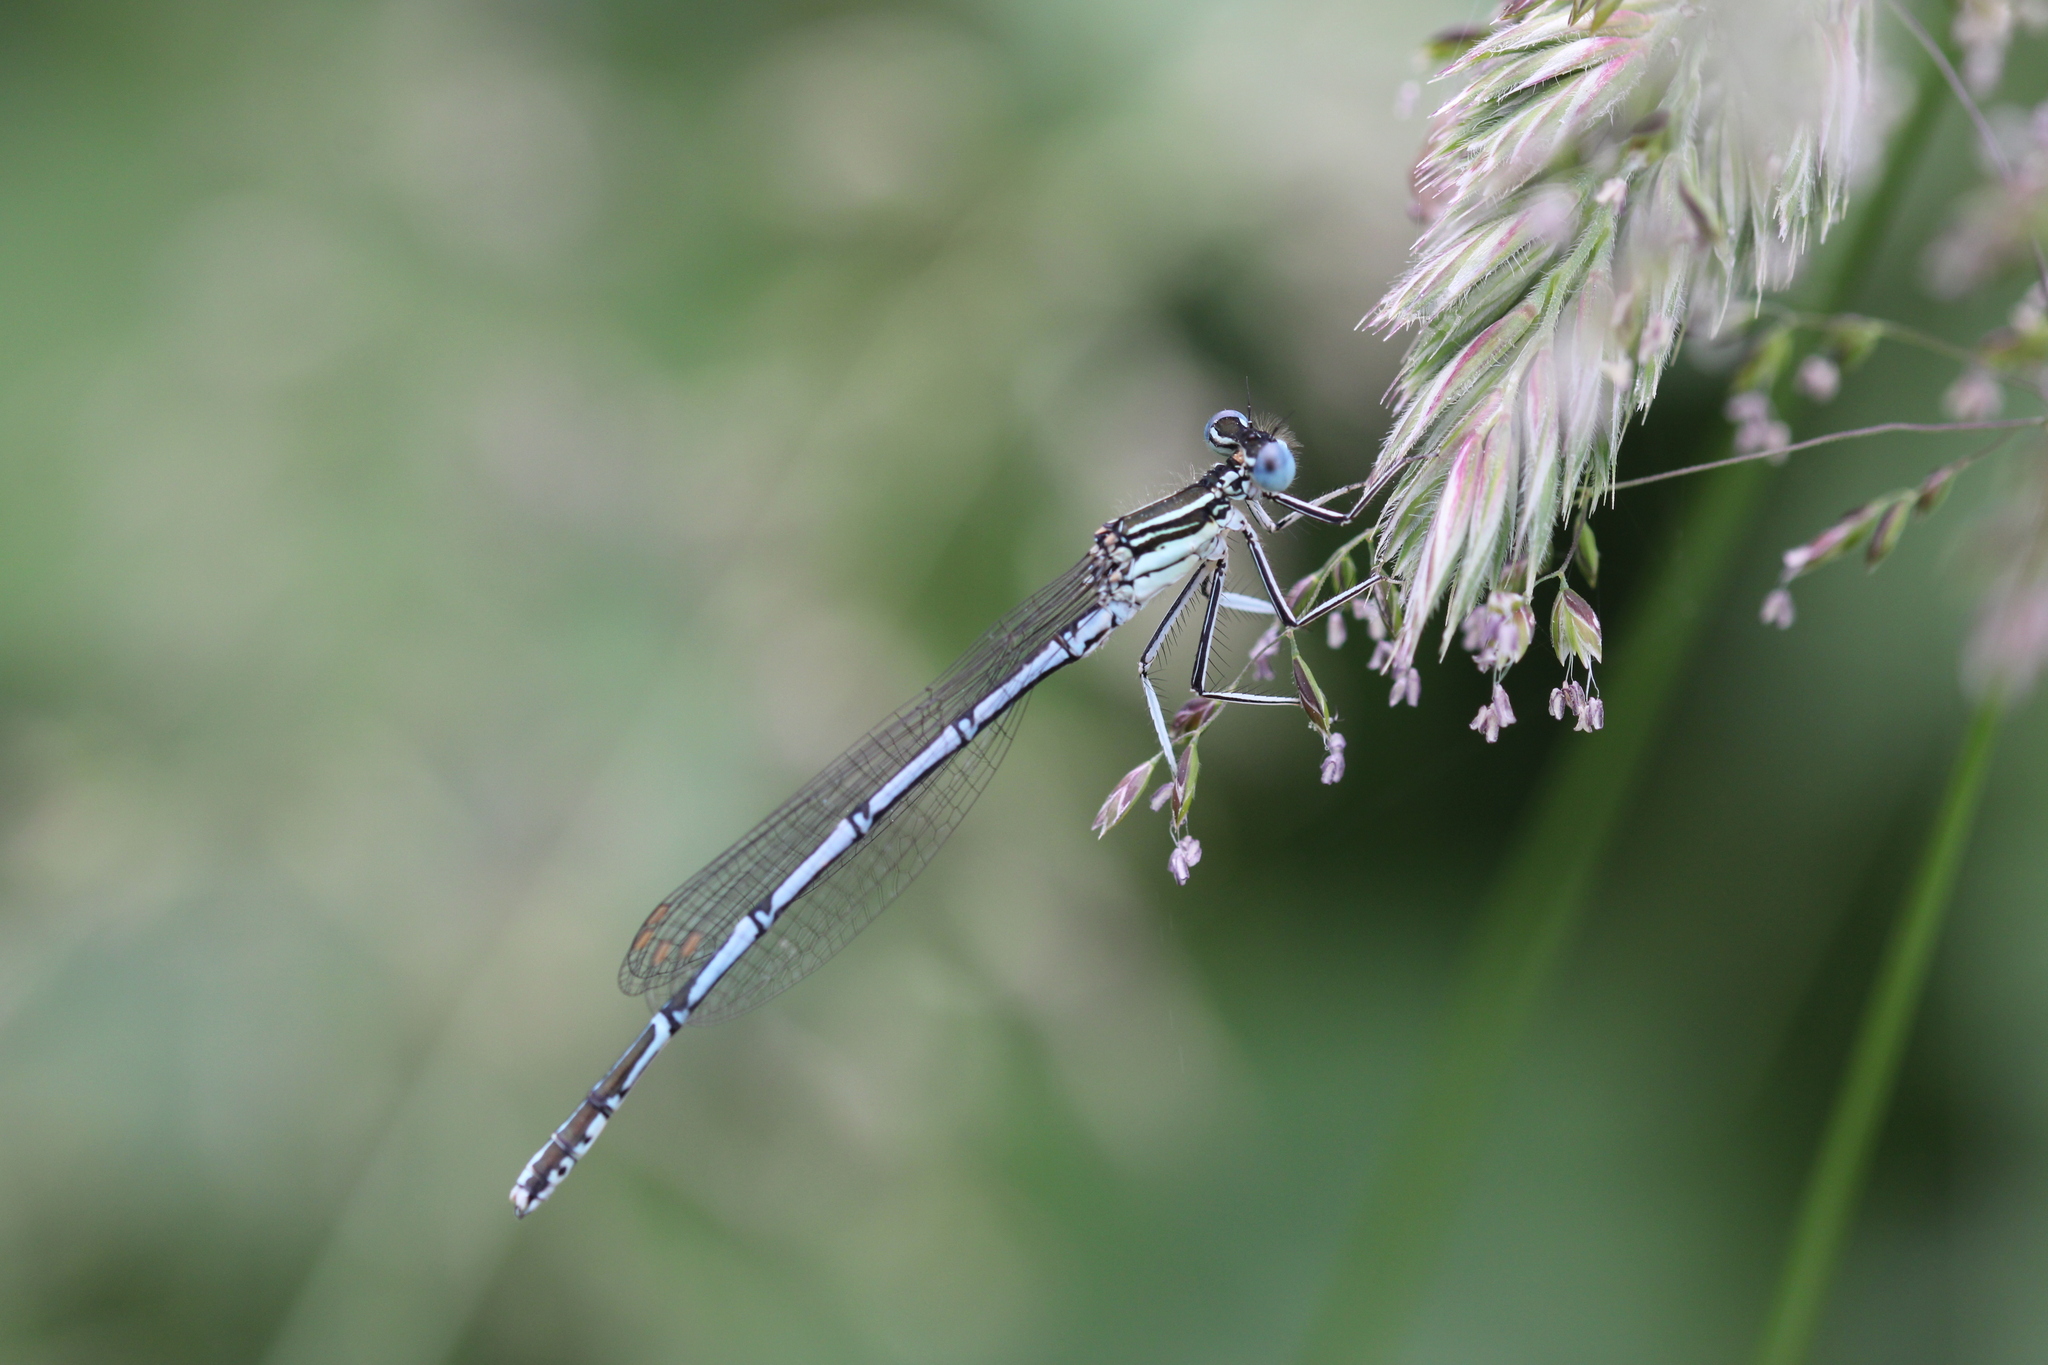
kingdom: Animalia
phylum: Arthropoda
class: Insecta
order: Odonata
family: Platycnemididae
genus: Platycnemis
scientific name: Platycnemis pennipes
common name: White-legged damselfly
